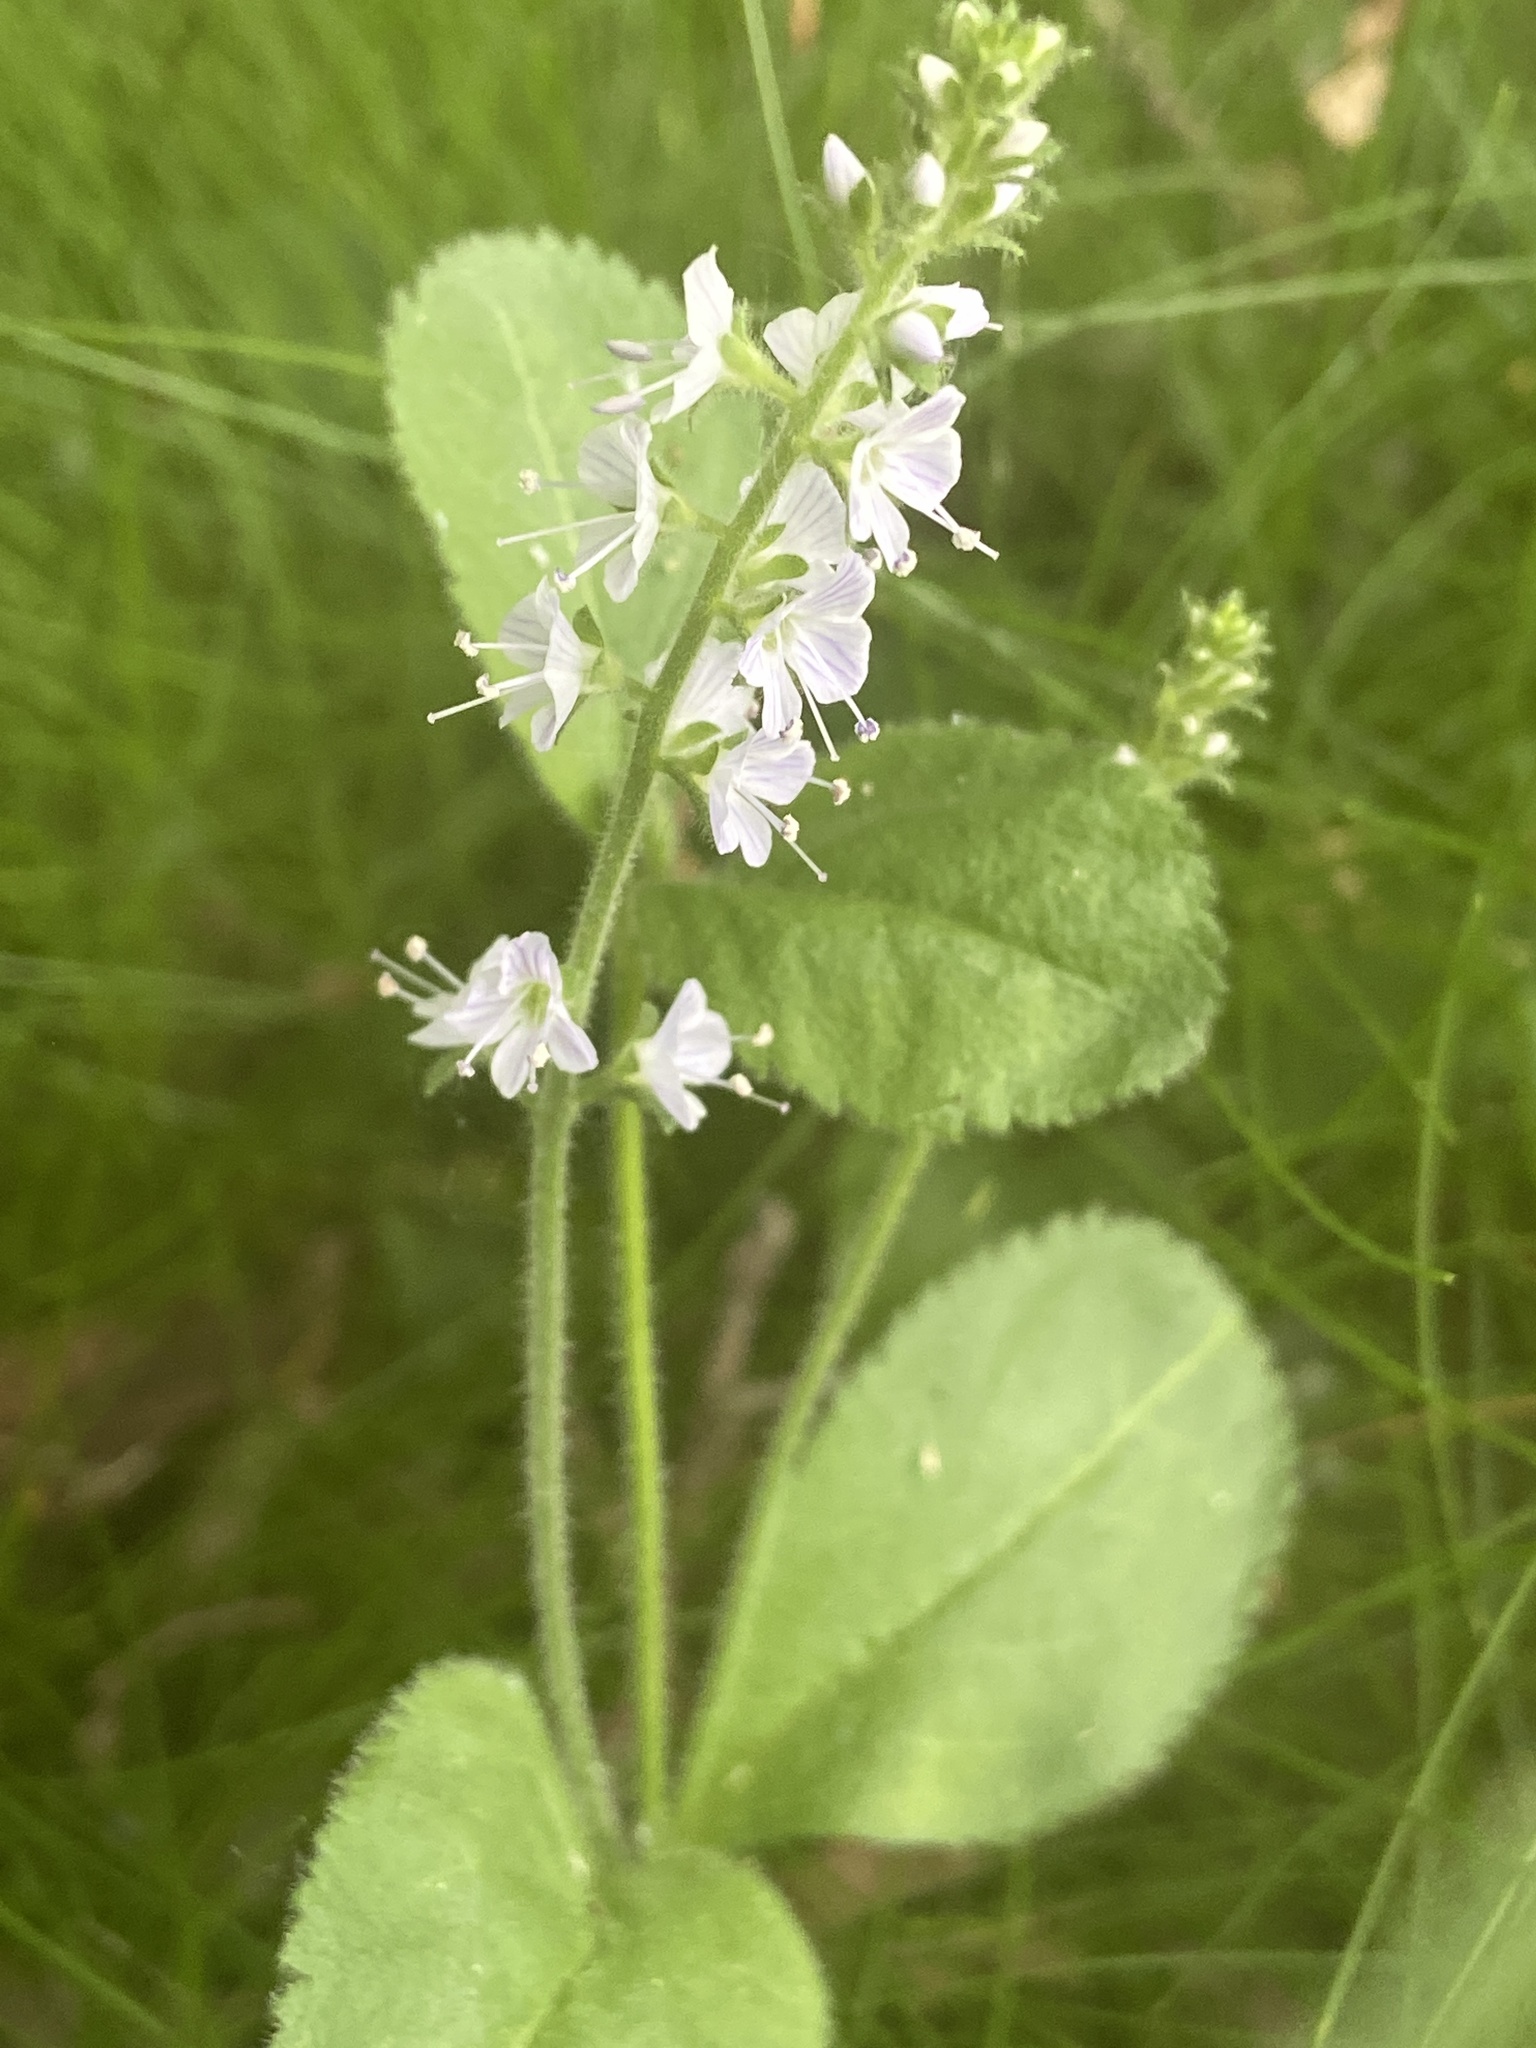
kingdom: Plantae
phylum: Tracheophyta
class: Magnoliopsida
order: Lamiales
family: Plantaginaceae
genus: Veronica
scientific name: Veronica officinalis
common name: Common speedwell
